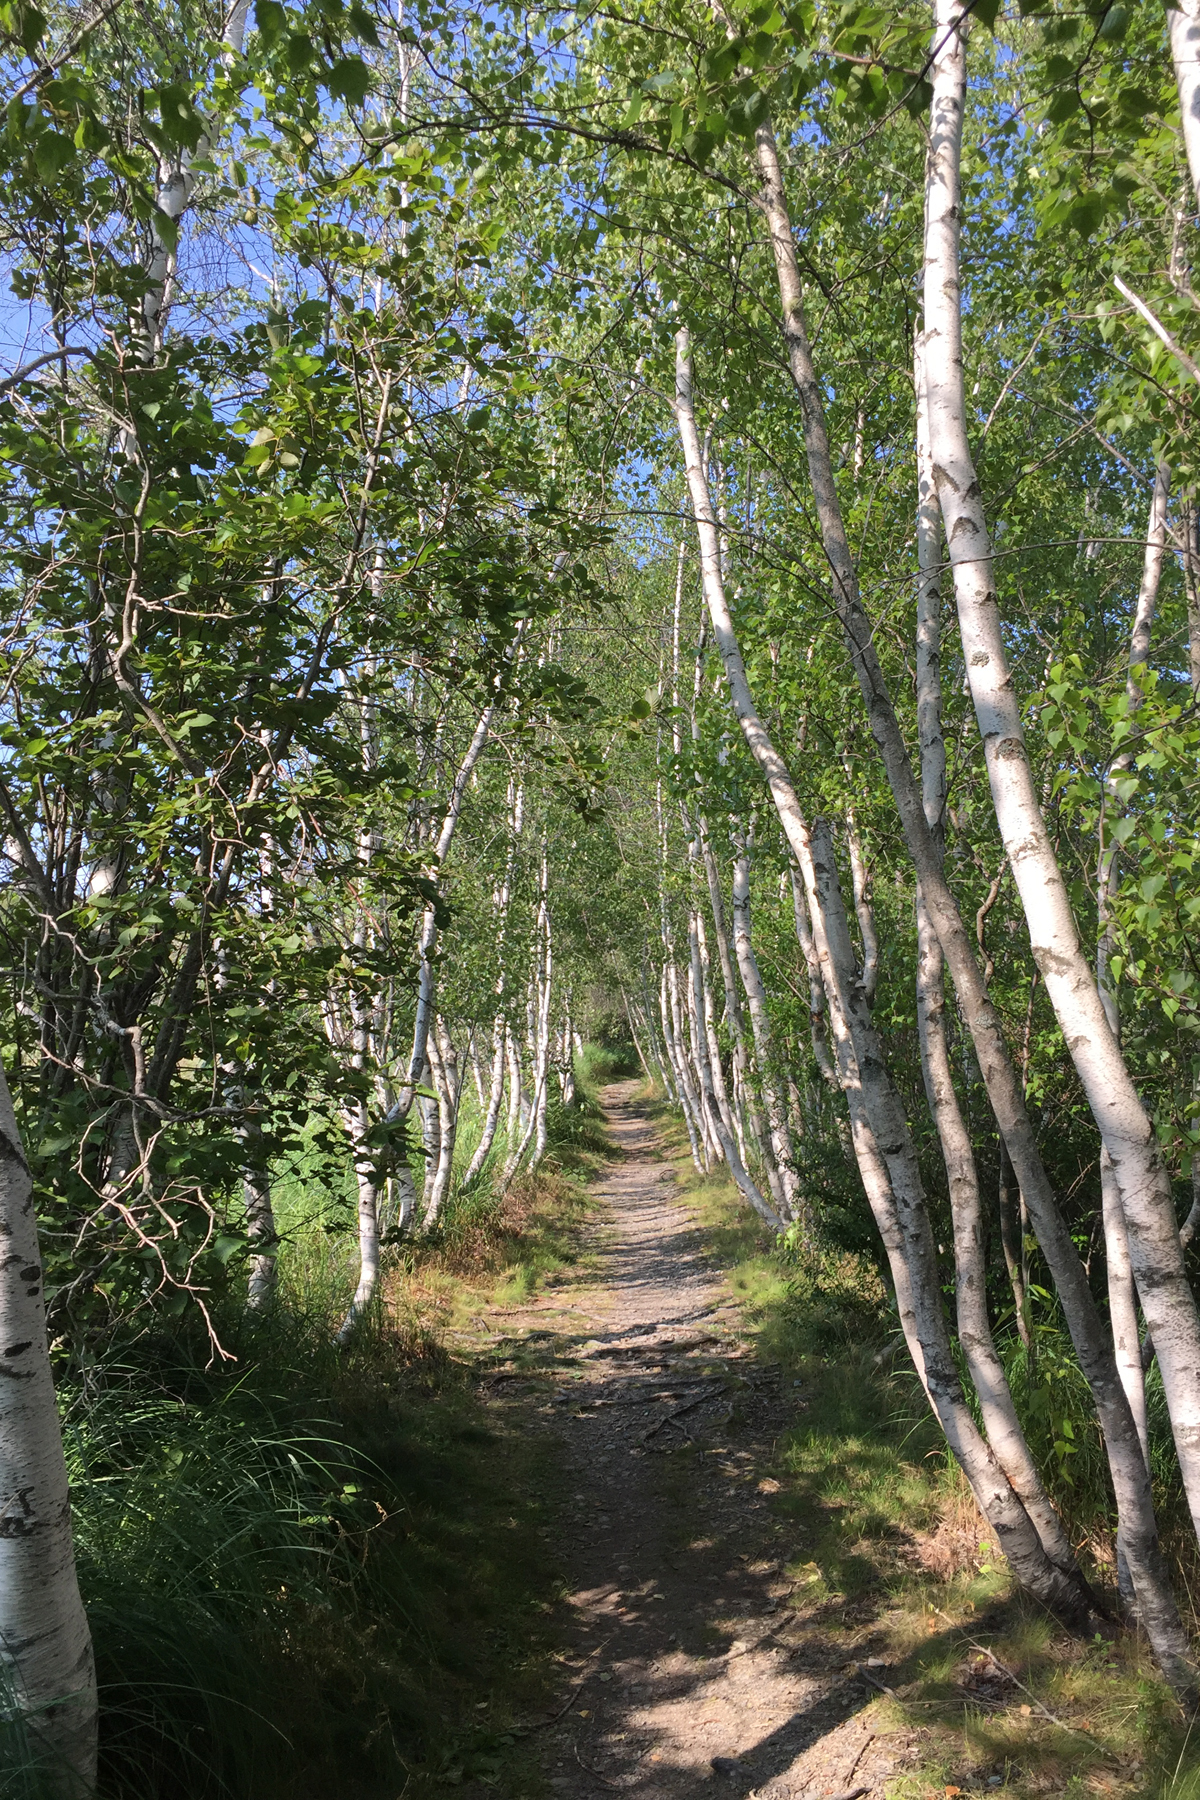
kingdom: Plantae
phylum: Tracheophyta
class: Magnoliopsida
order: Fagales
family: Betulaceae
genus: Betula
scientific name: Betula populifolia
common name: Fire birch
